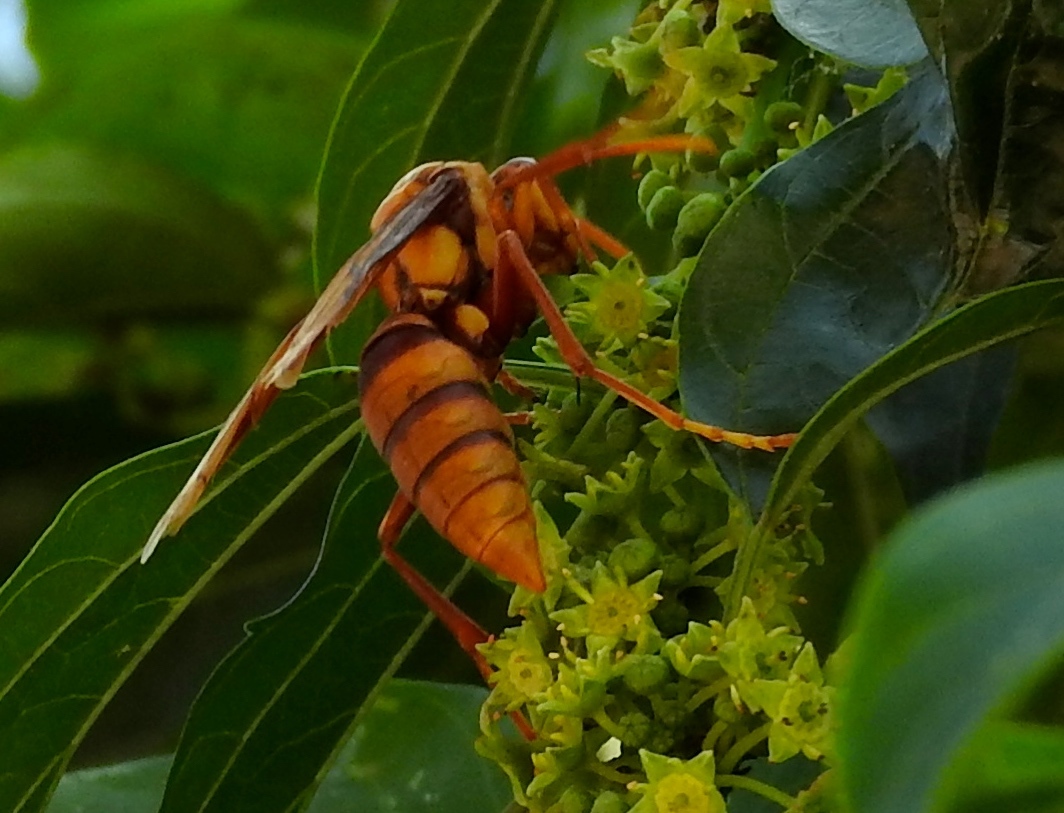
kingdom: Animalia
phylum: Arthropoda
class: Insecta
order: Hymenoptera
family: Eumenidae
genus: Polistes
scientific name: Polistes carnifex
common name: Paper wasp
